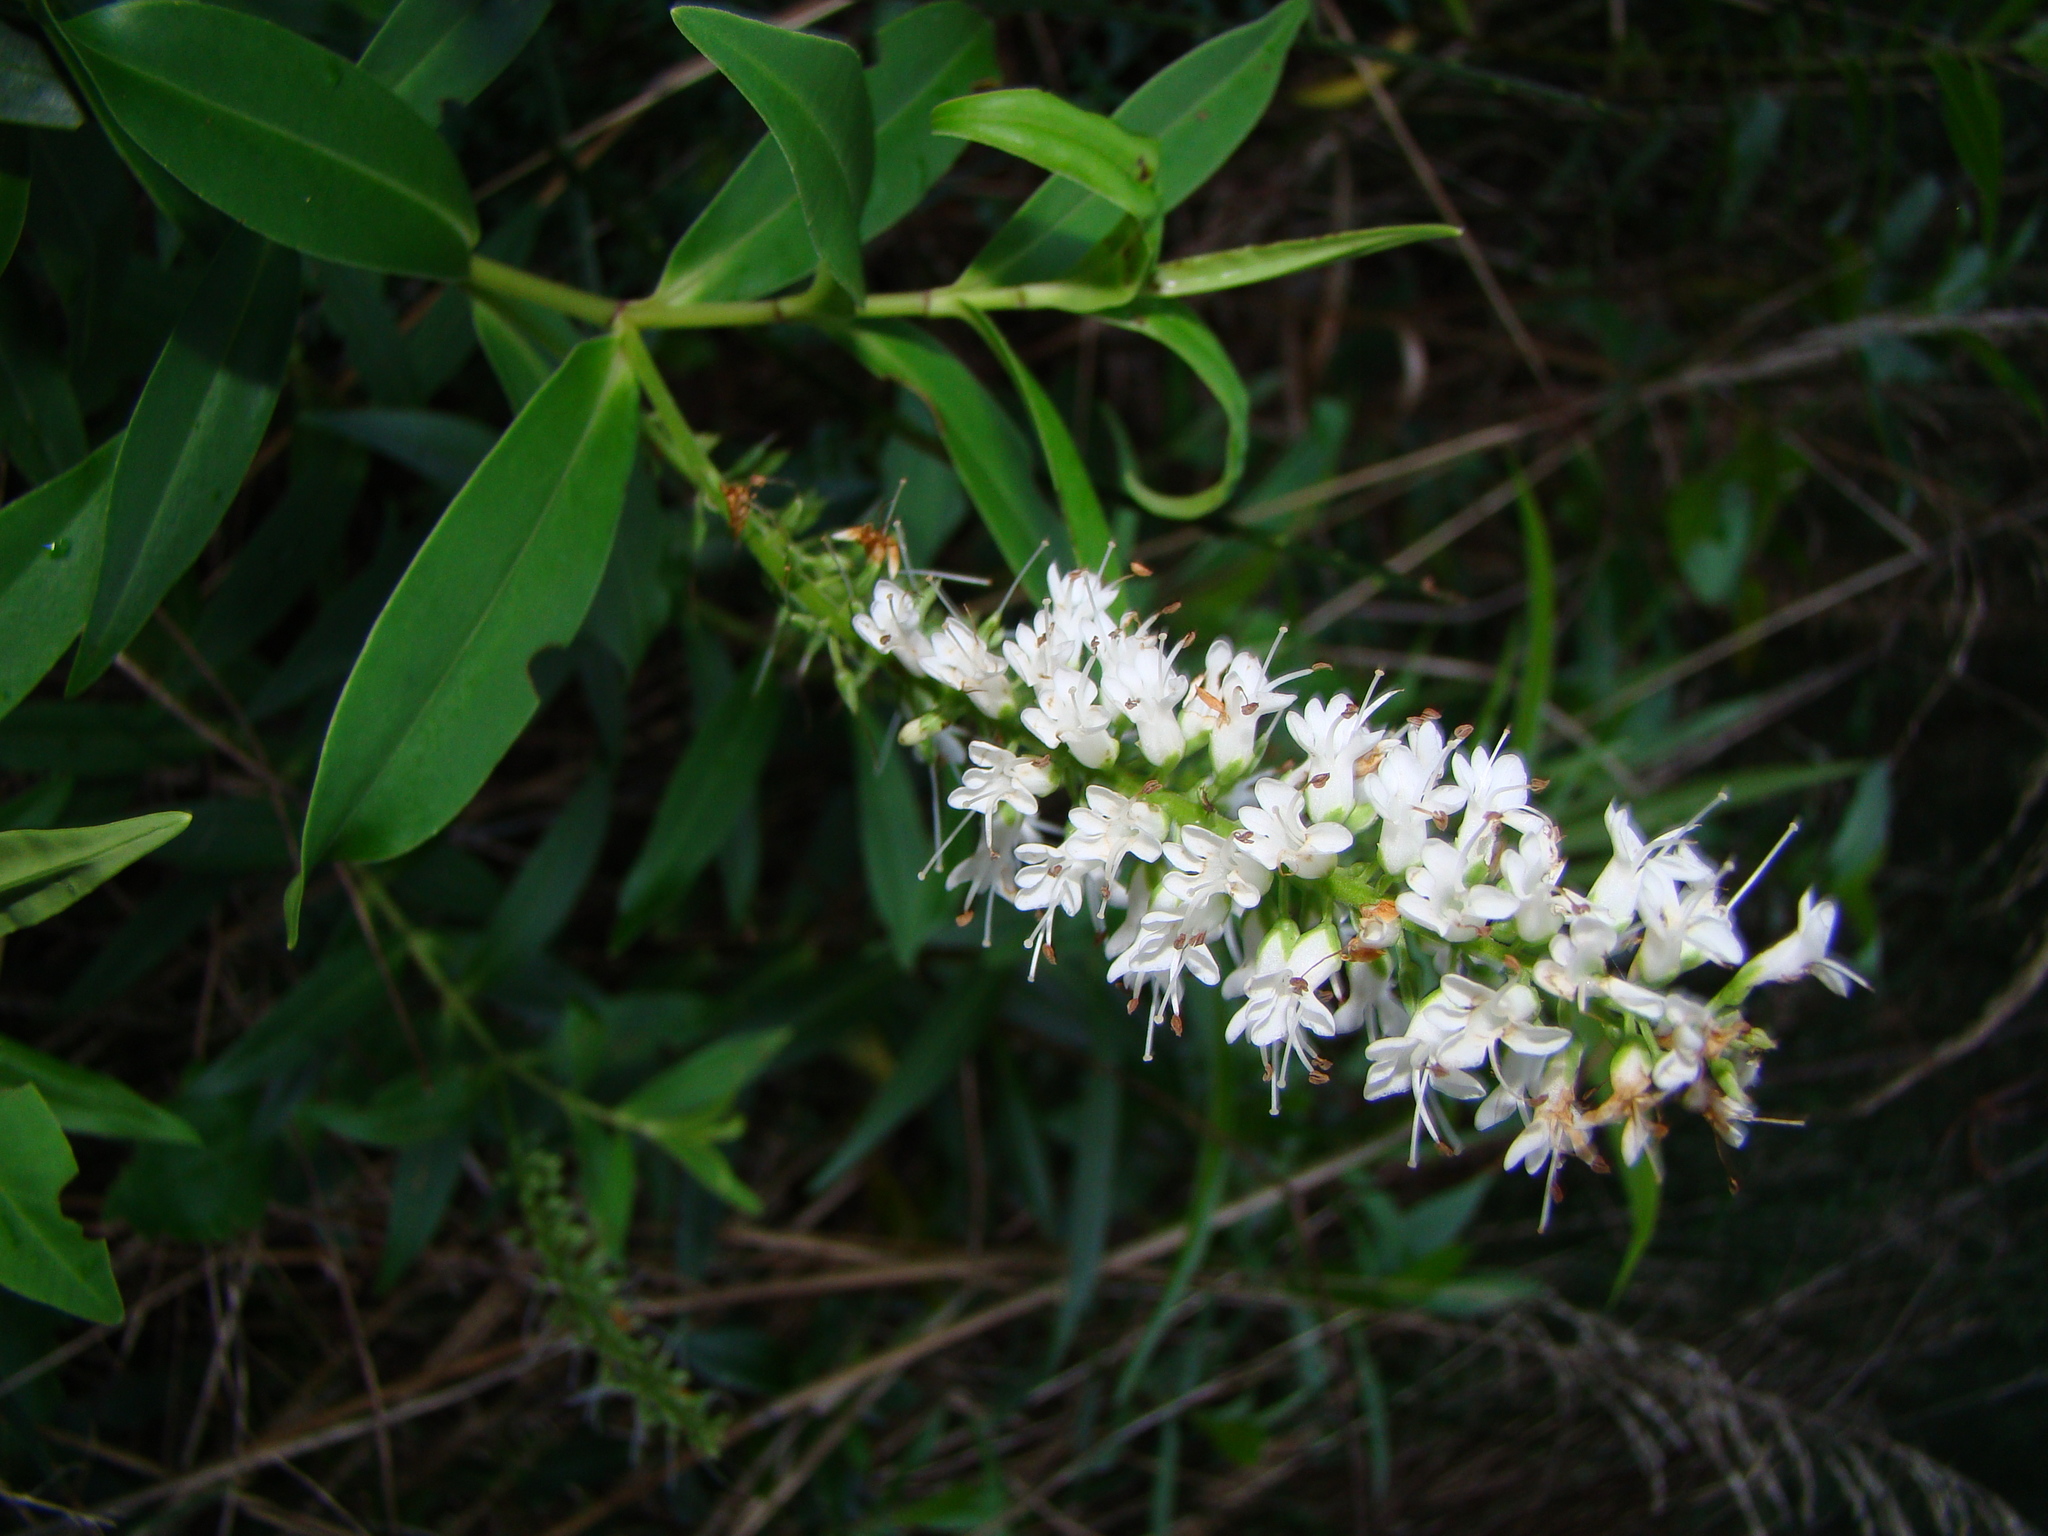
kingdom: Plantae
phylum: Tracheophyta
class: Magnoliopsida
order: Lamiales
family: Plantaginaceae
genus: Veronica
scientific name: Veronica stricta
